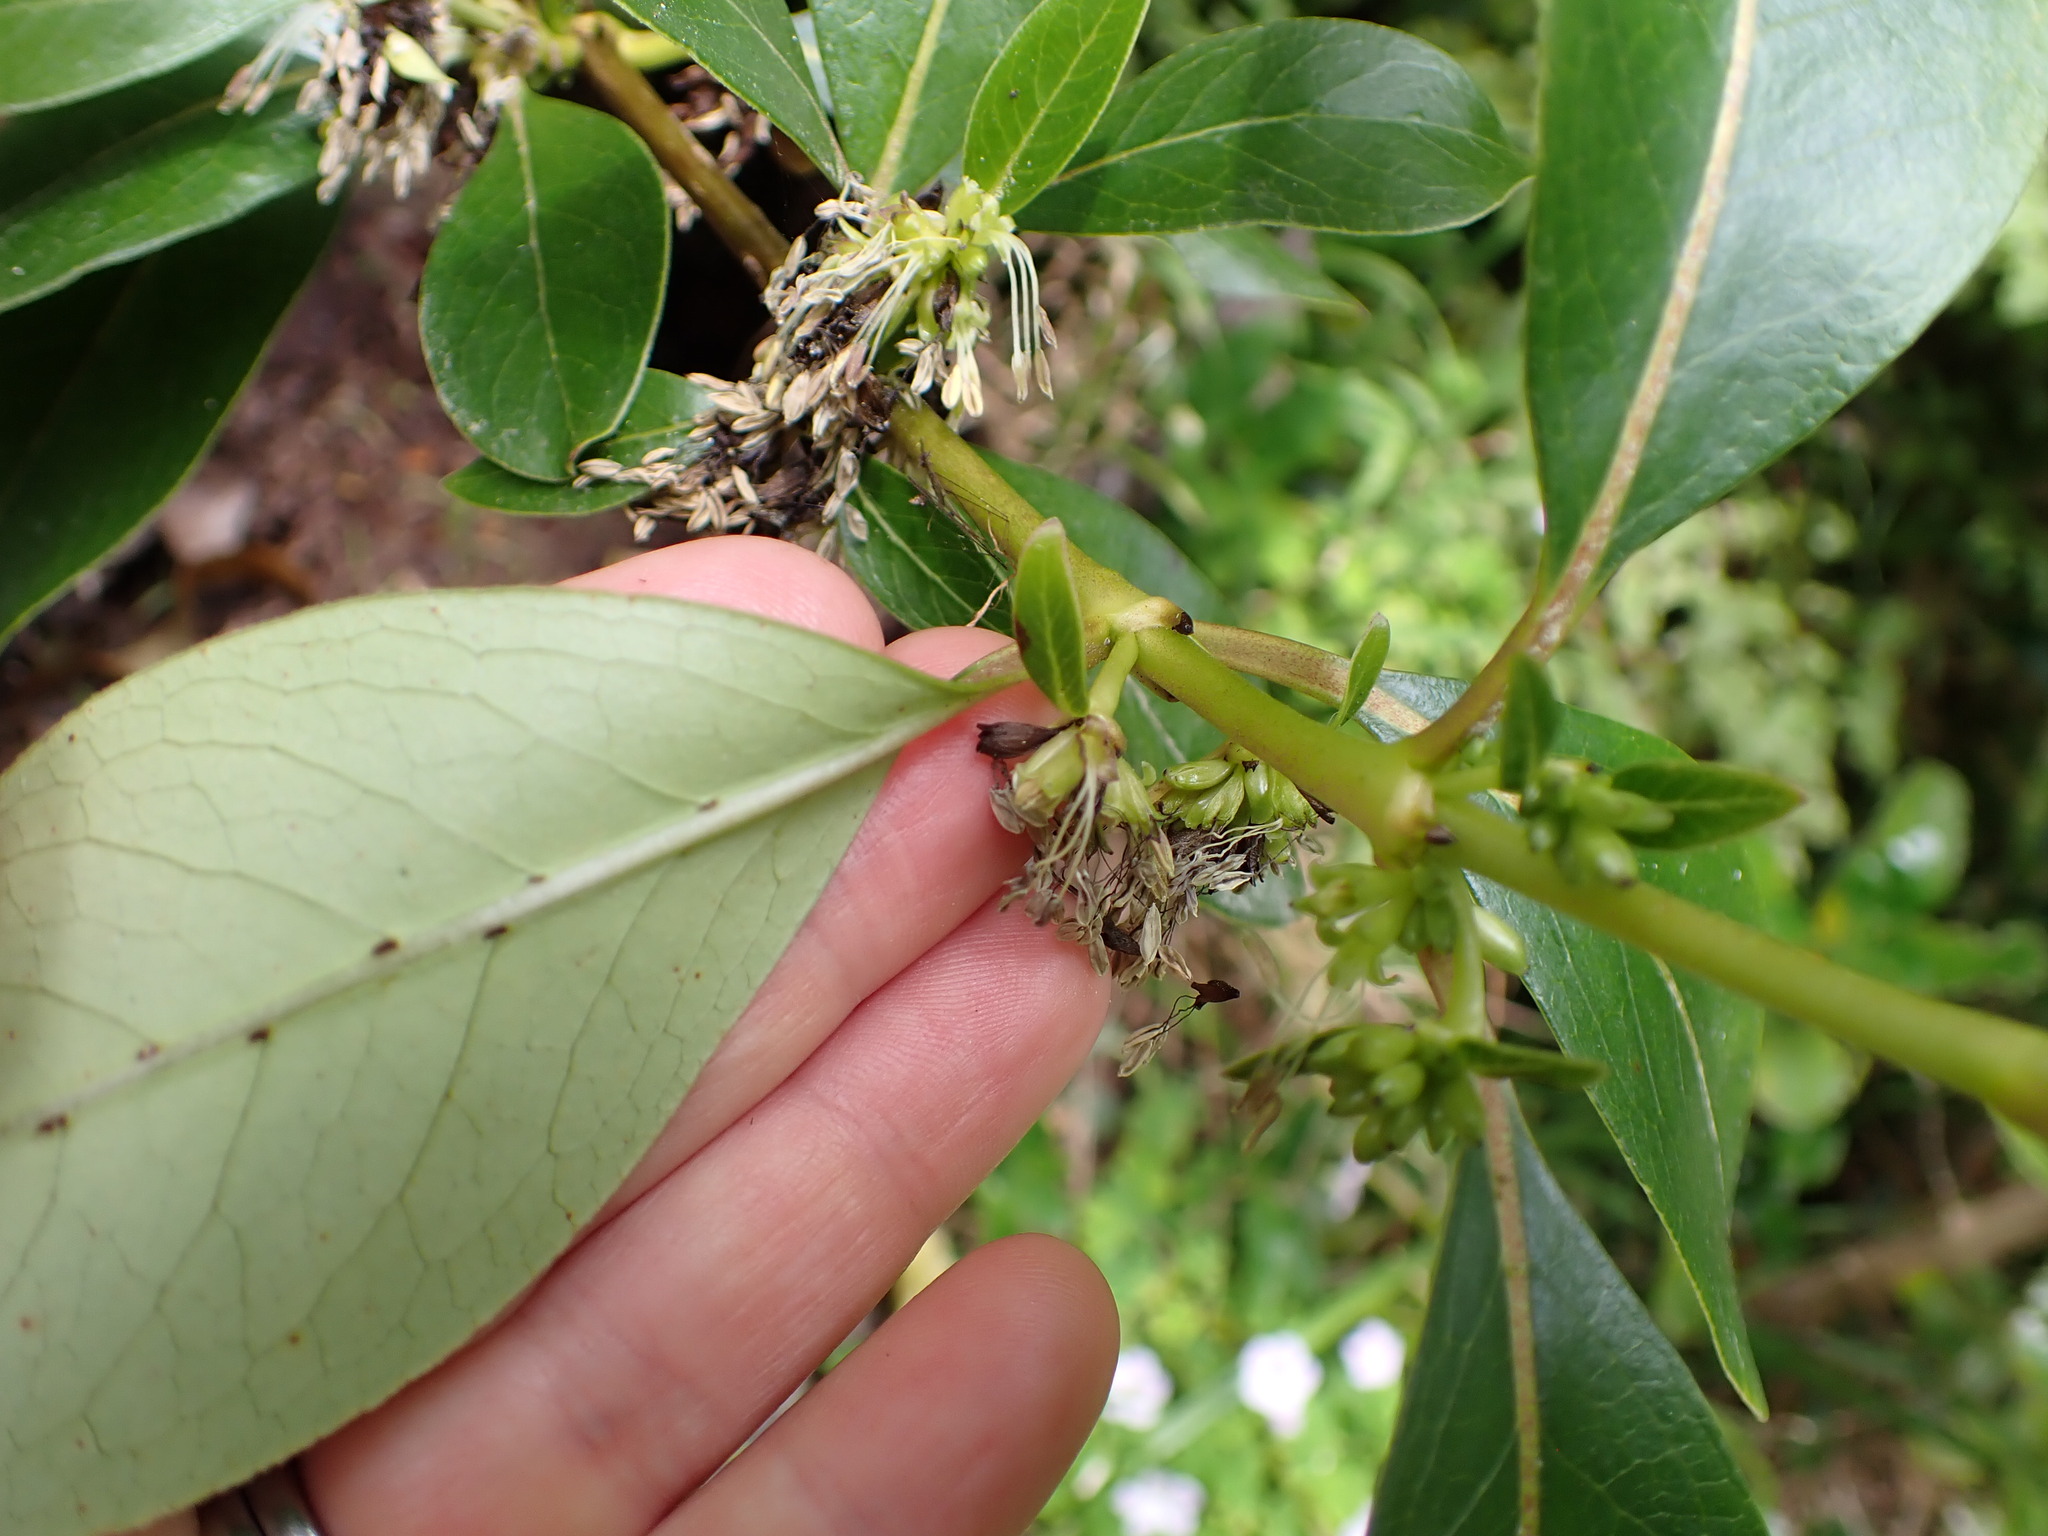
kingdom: Plantae
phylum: Tracheophyta
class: Magnoliopsida
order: Gentianales
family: Rubiaceae
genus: Coprosma
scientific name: Coprosma robusta
